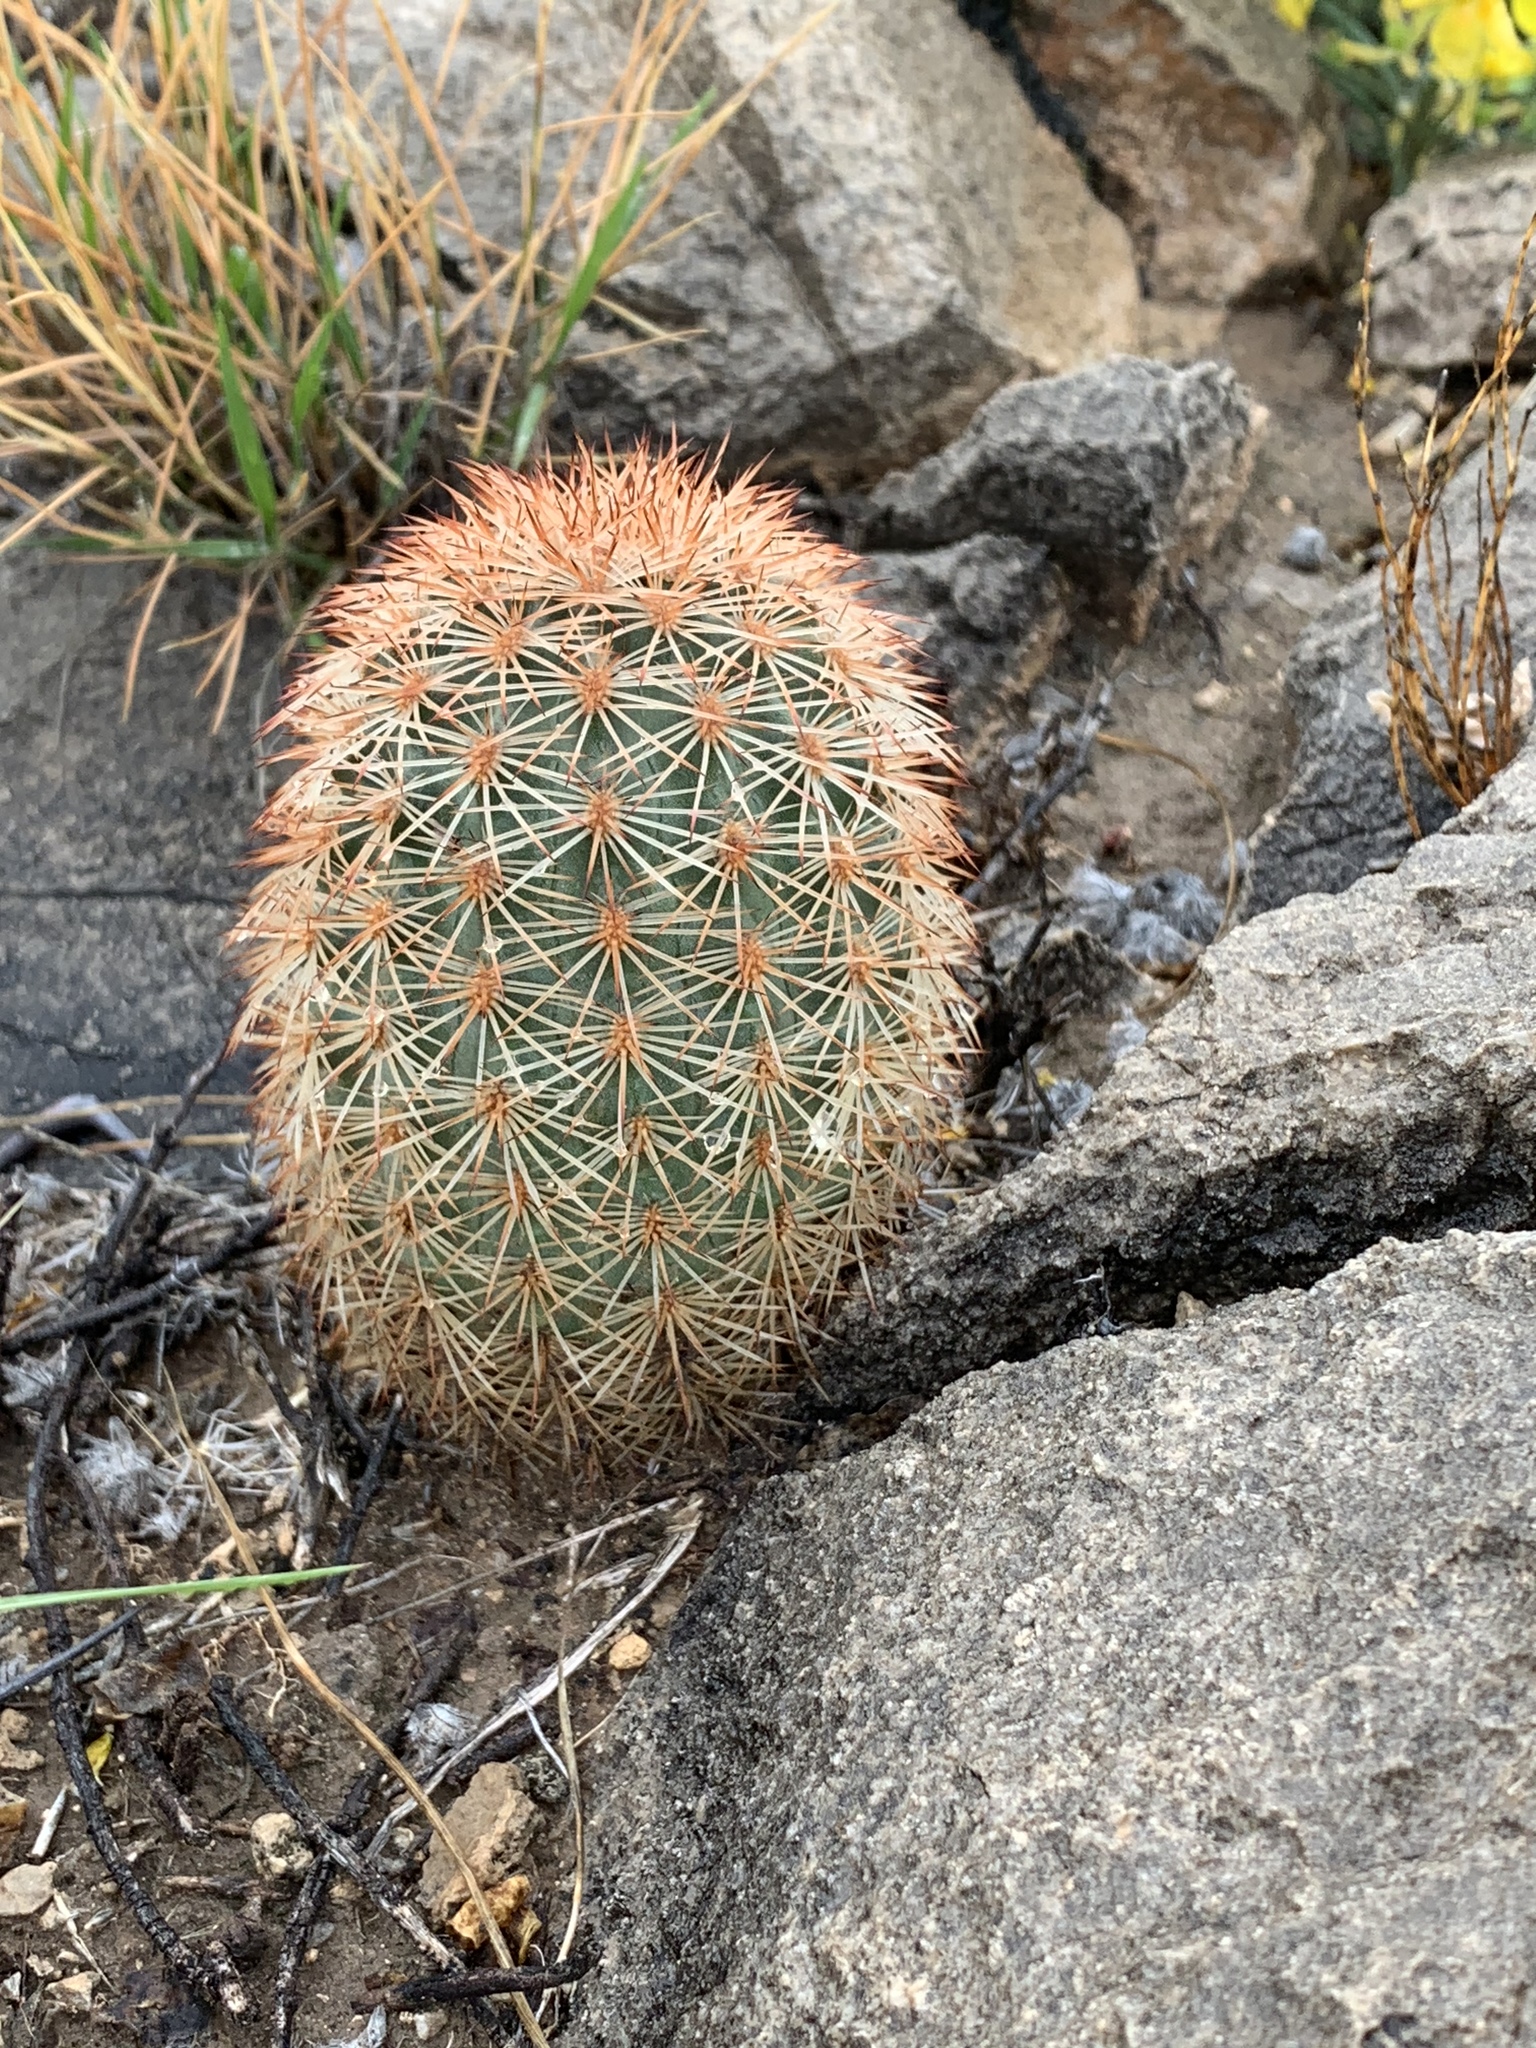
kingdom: Plantae
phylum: Tracheophyta
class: Magnoliopsida
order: Caryophyllales
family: Cactaceae
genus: Echinocereus
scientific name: Echinocereus dasyacanthus
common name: Spiny hedgehog cactus
